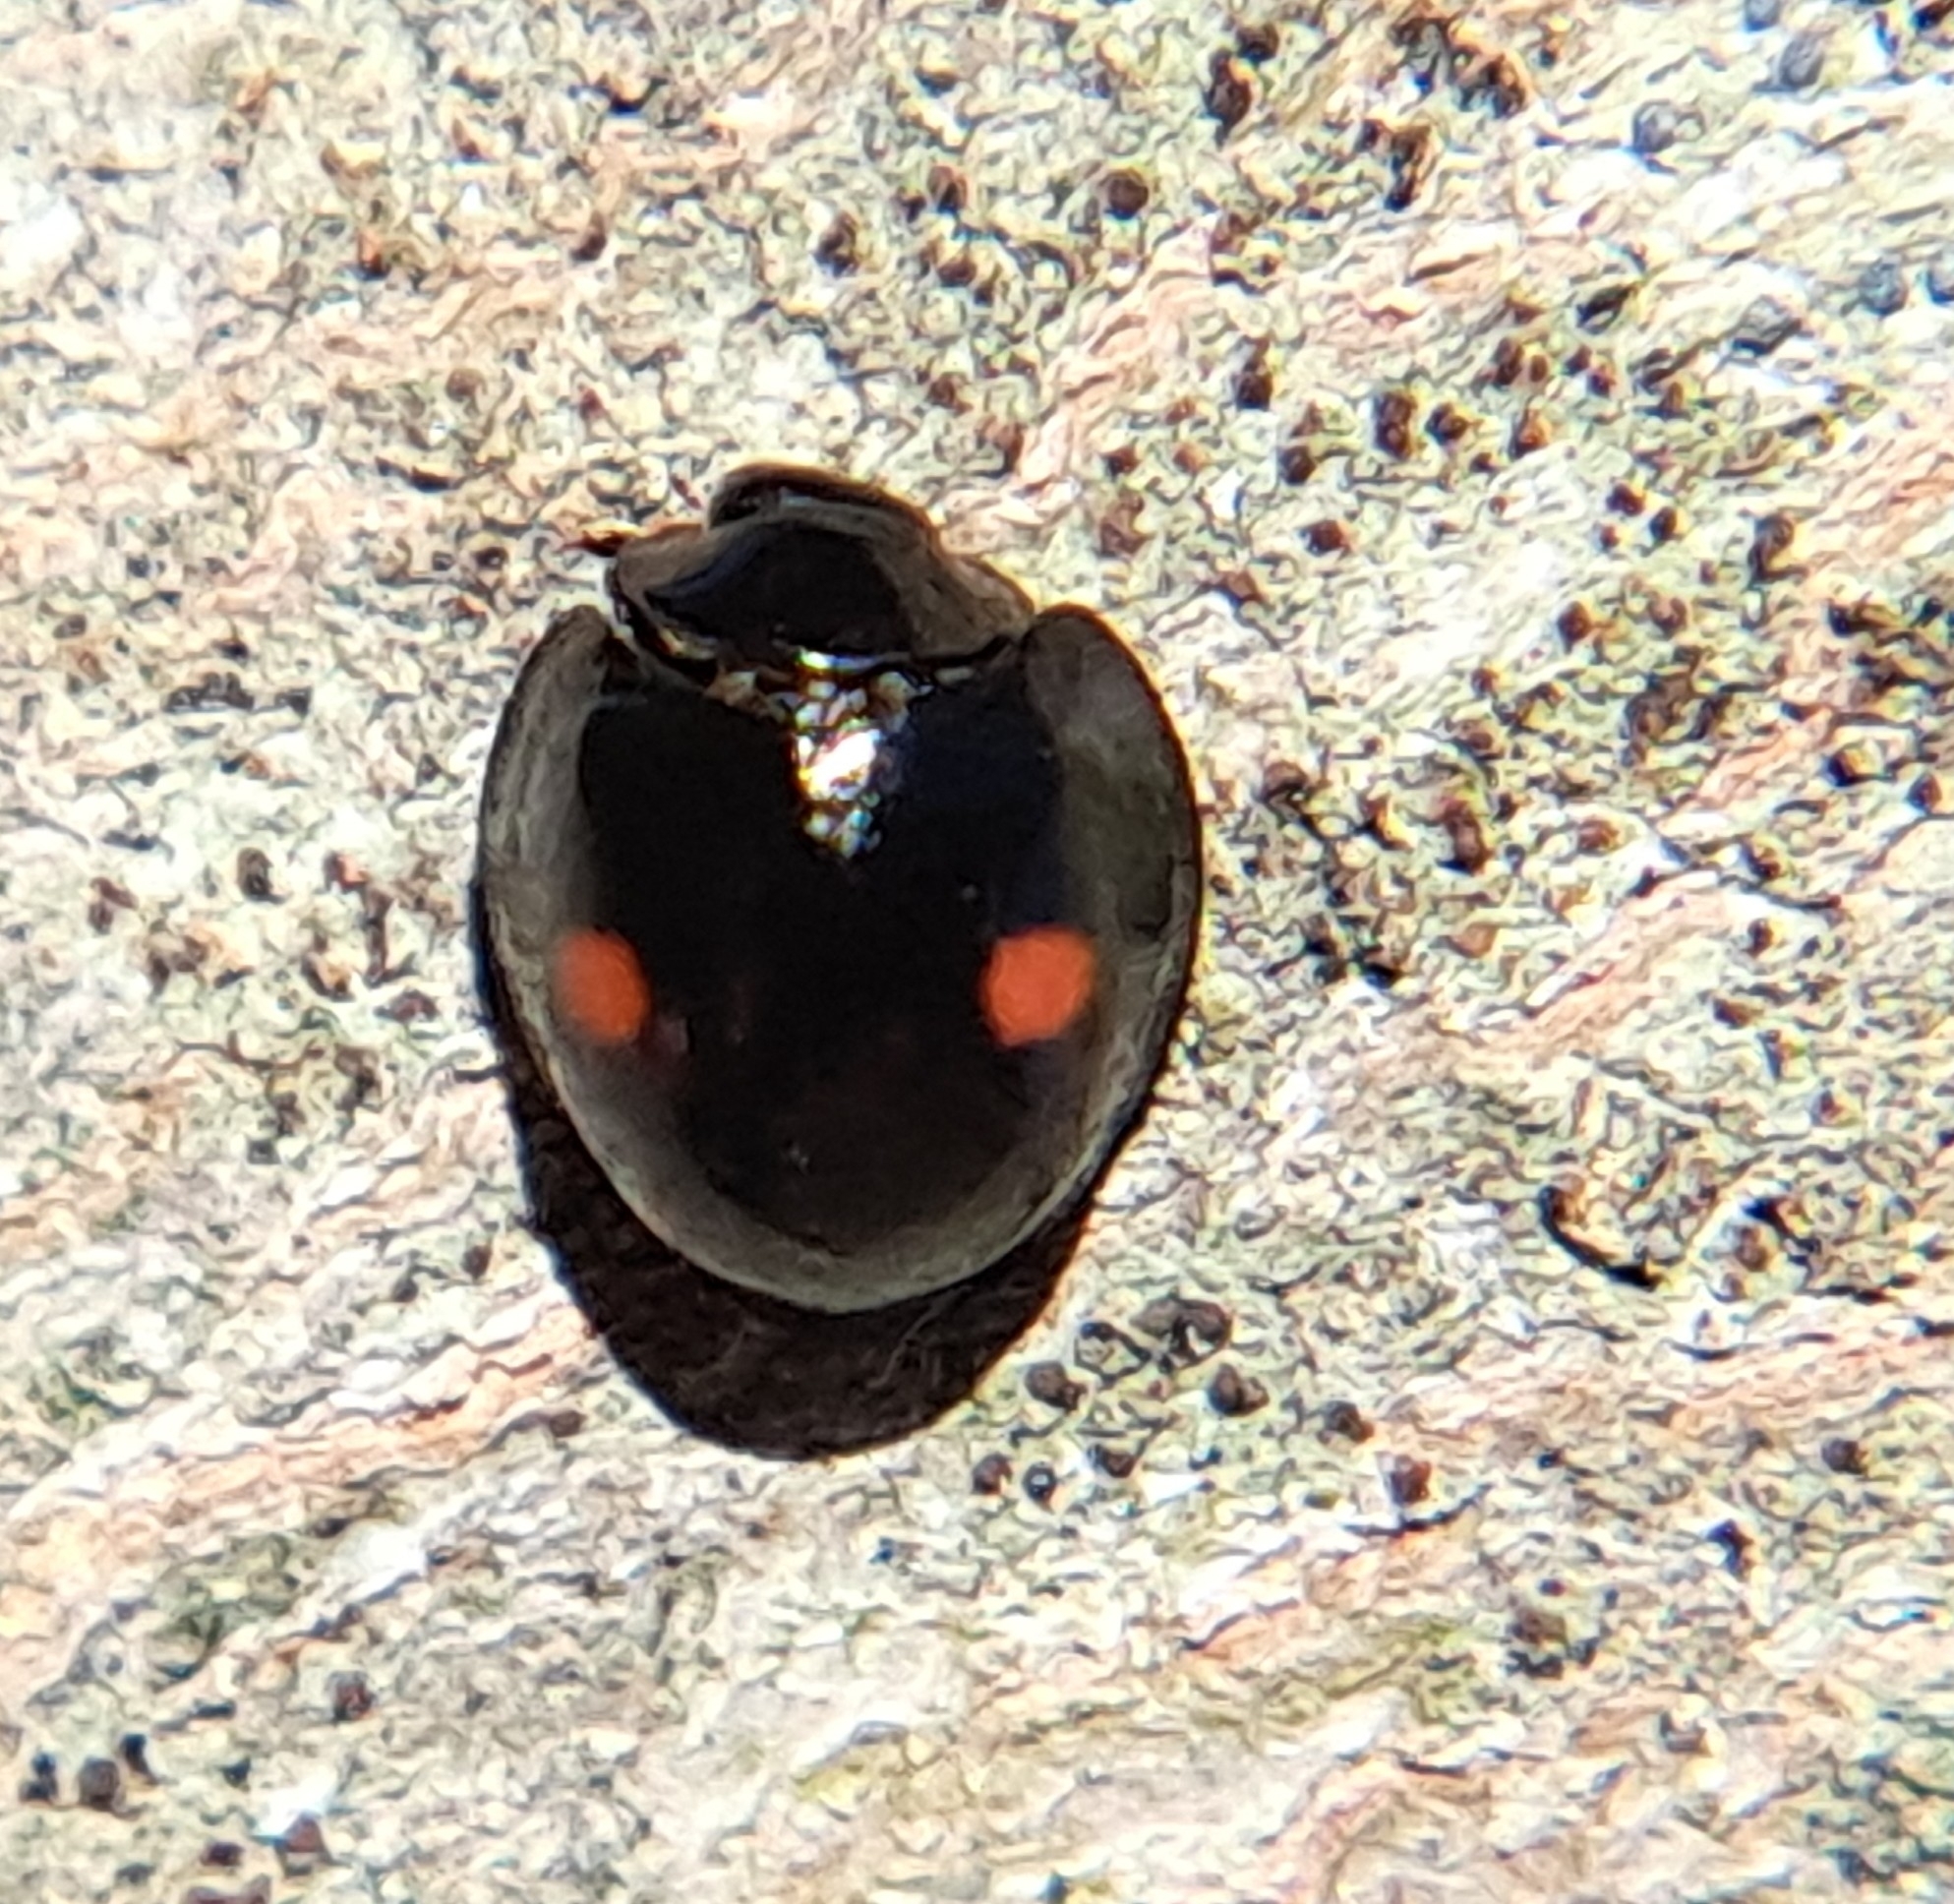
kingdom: Animalia
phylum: Arthropoda
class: Insecta
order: Coleoptera
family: Coccinellidae
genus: Chilocorus
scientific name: Chilocorus stigma
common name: Twicestabbed lady beetle
